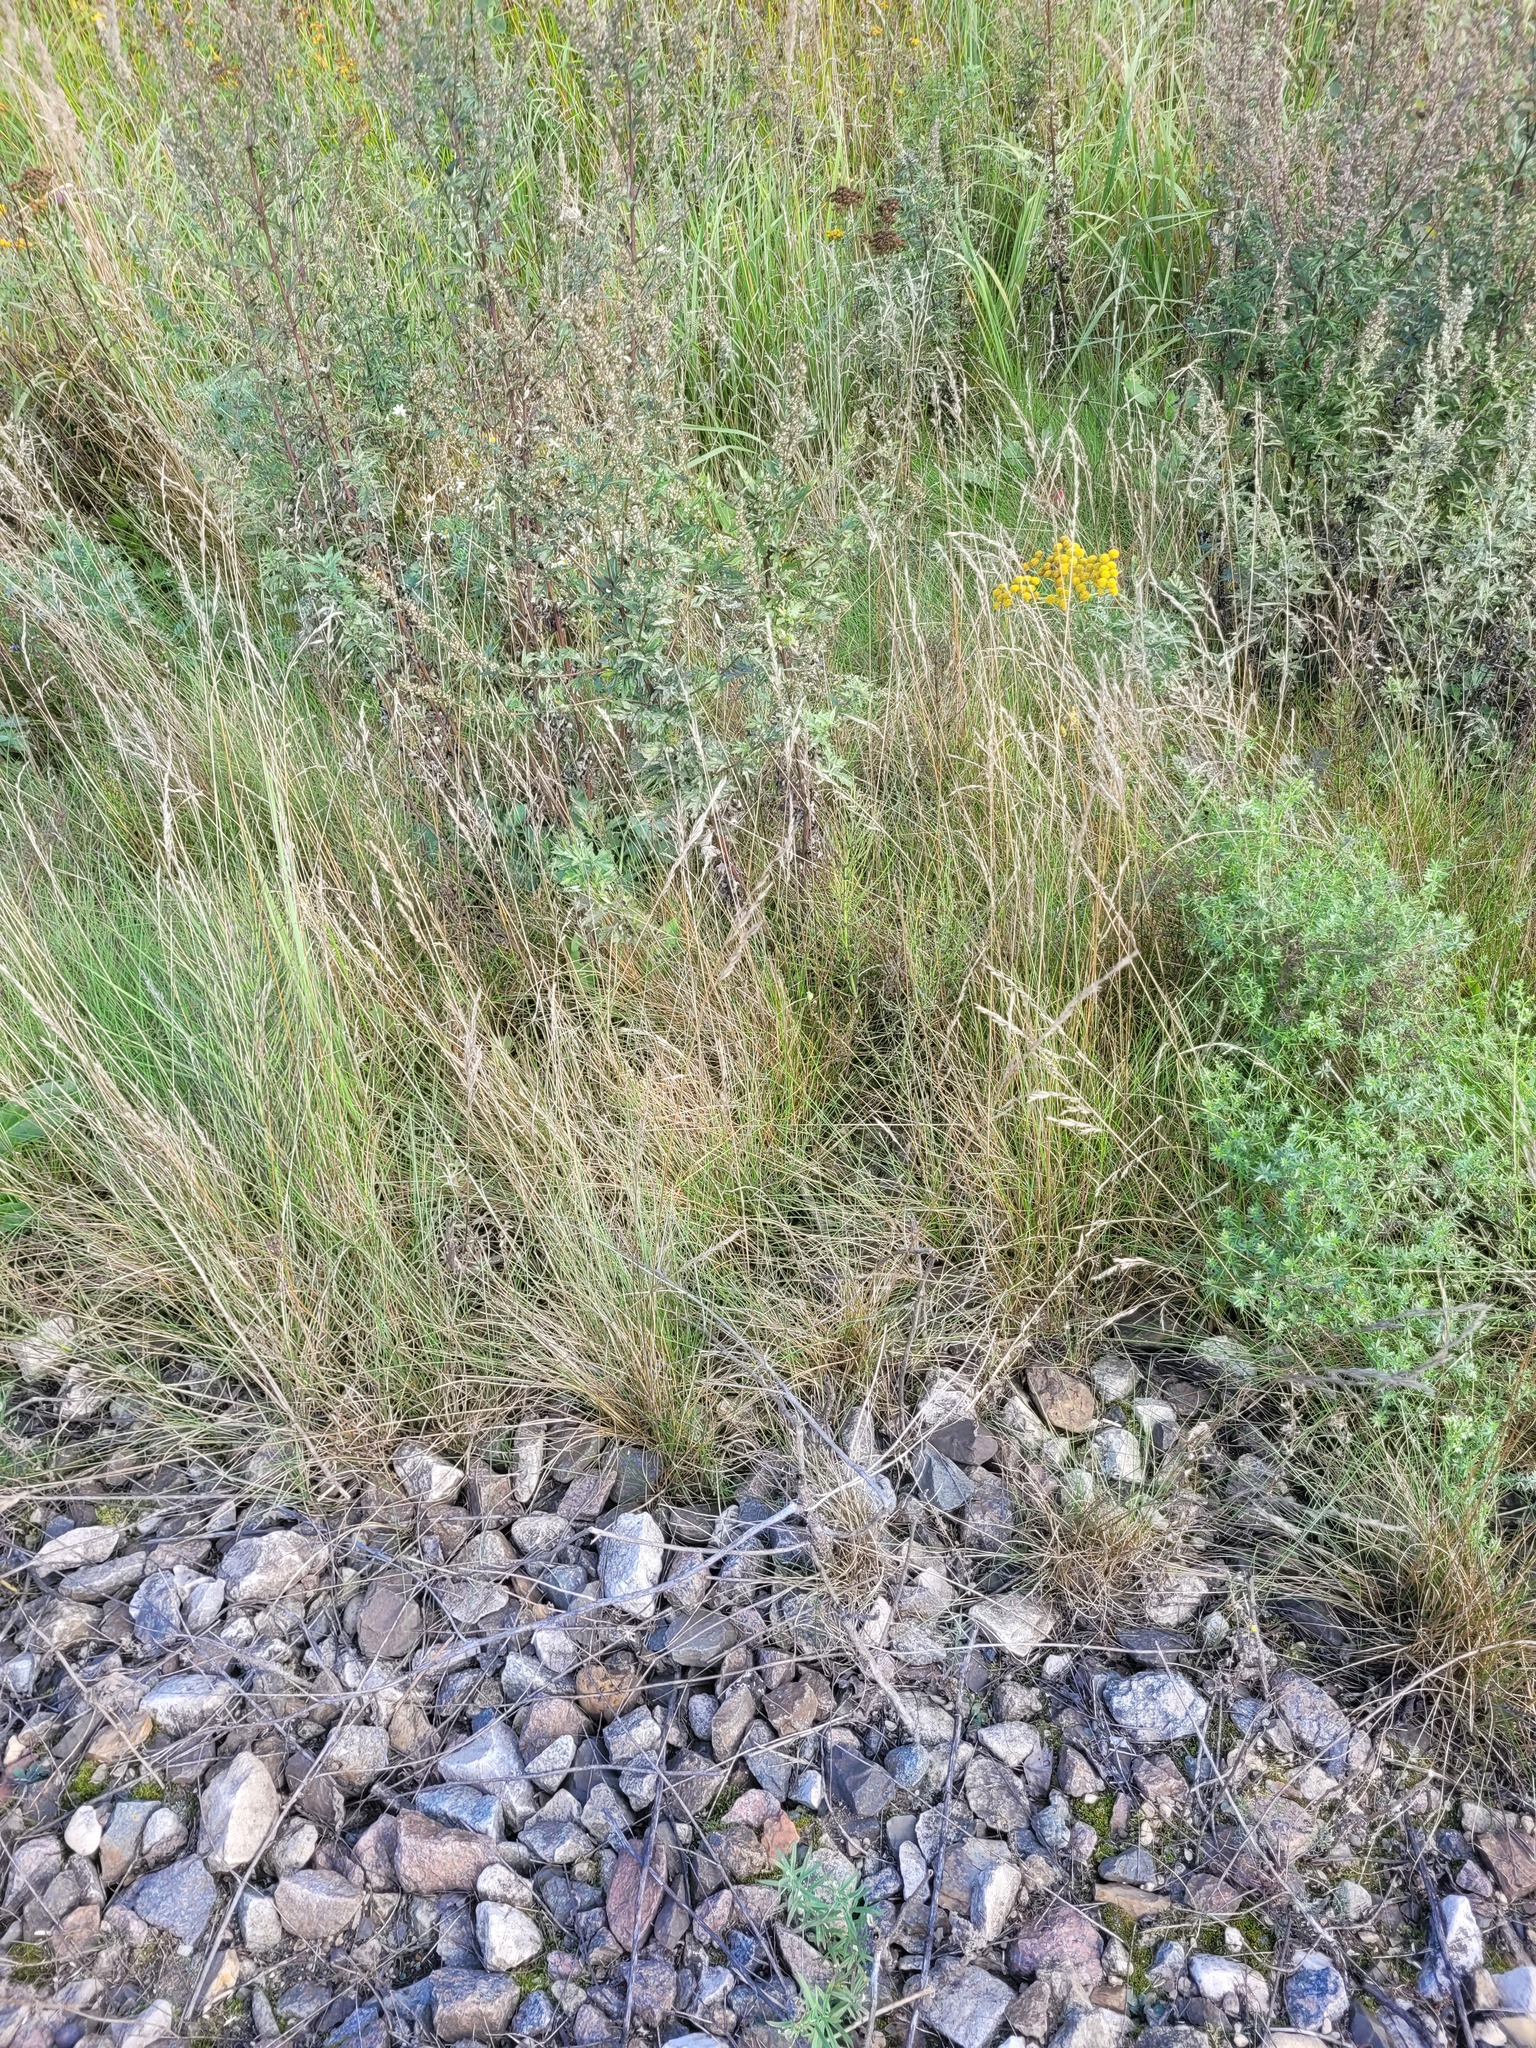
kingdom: Plantae
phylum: Tracheophyta
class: Liliopsida
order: Poales
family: Poaceae
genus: Festuca
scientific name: Festuca rubra
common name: Red fescue
